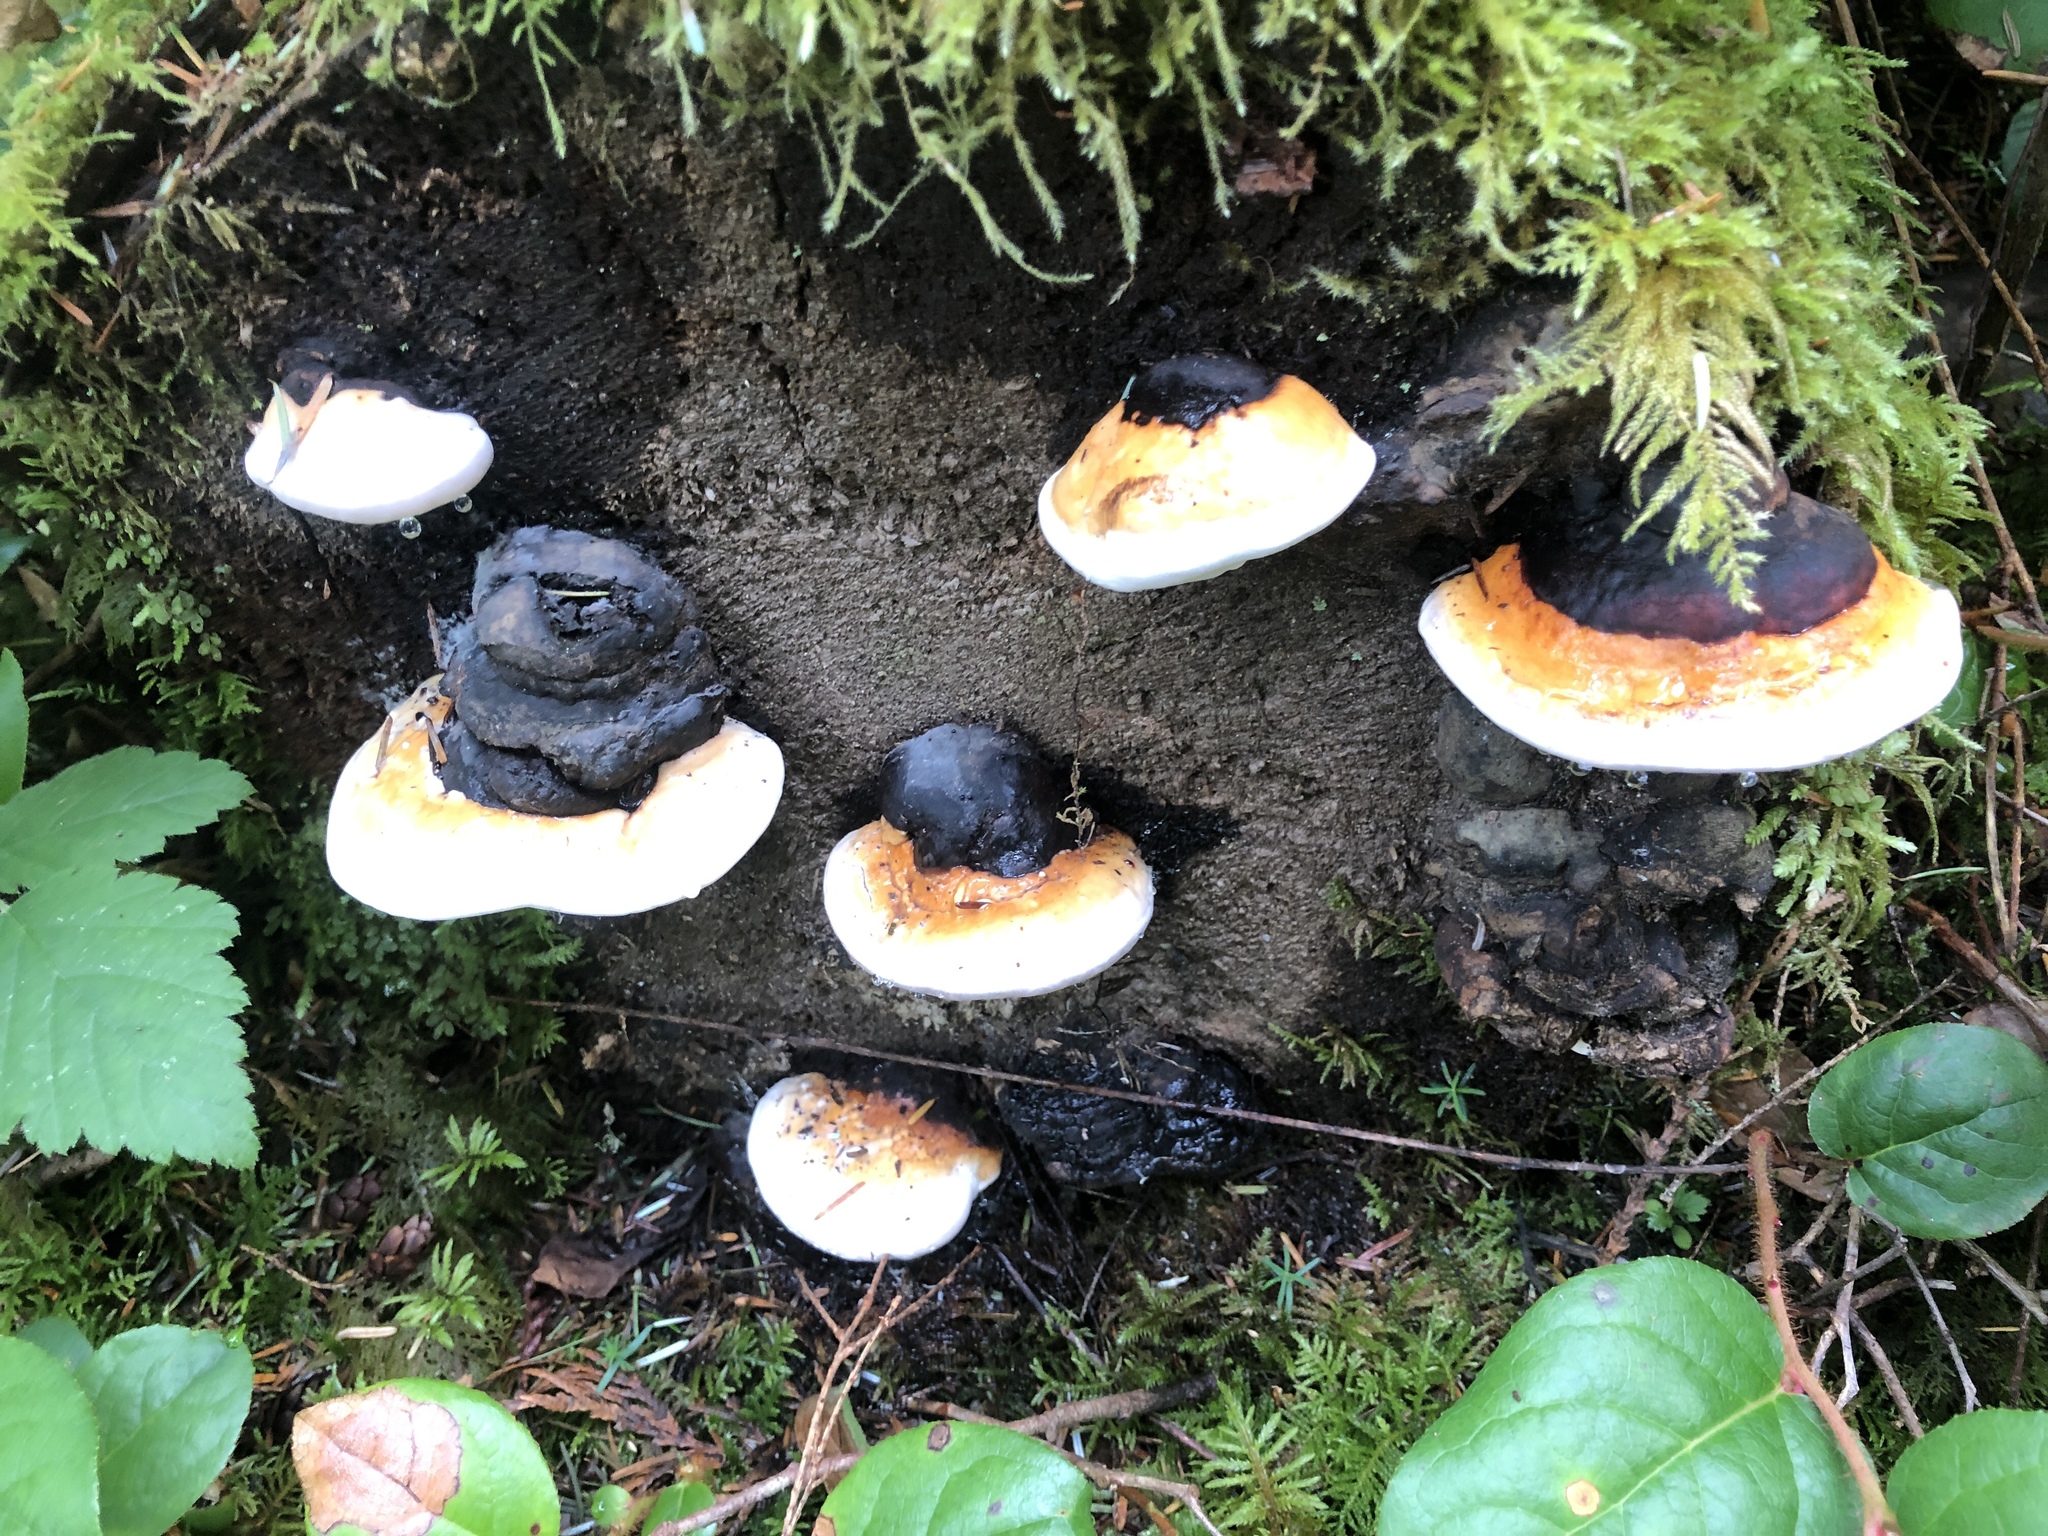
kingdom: Fungi
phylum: Basidiomycota
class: Agaricomycetes
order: Polyporales
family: Fomitopsidaceae
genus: Fomitopsis
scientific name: Fomitopsis mounceae
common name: Northern red belt
